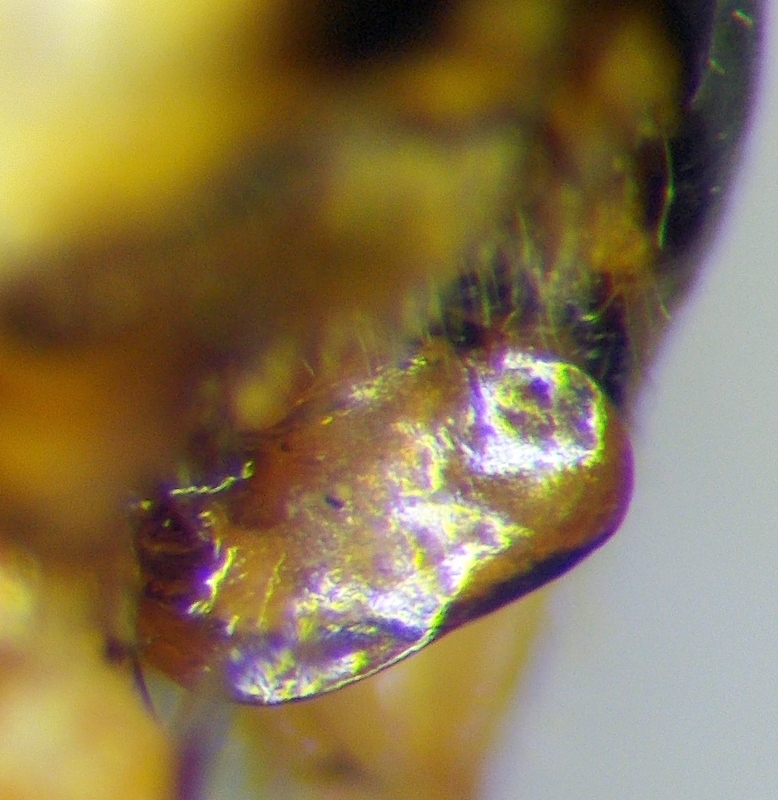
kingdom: Animalia
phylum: Arthropoda
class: Insecta
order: Hemiptera
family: Pentatomidae
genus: Carpocoris
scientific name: Carpocoris purpureipennis
